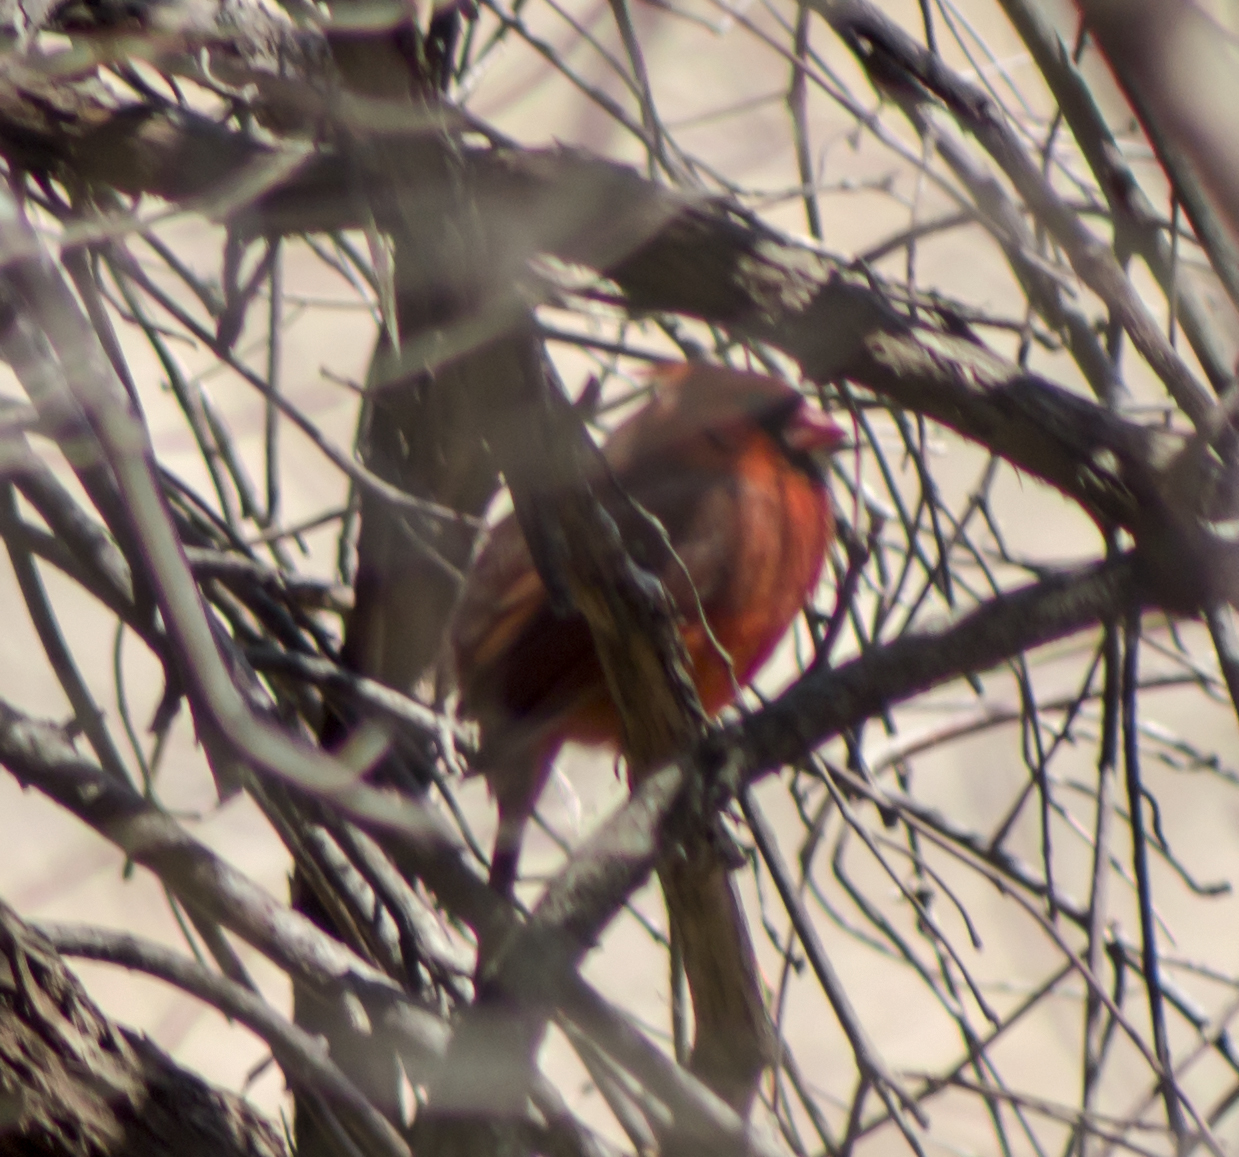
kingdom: Animalia
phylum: Chordata
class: Aves
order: Passeriformes
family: Cardinalidae
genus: Cardinalis
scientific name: Cardinalis cardinalis
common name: Northern cardinal
